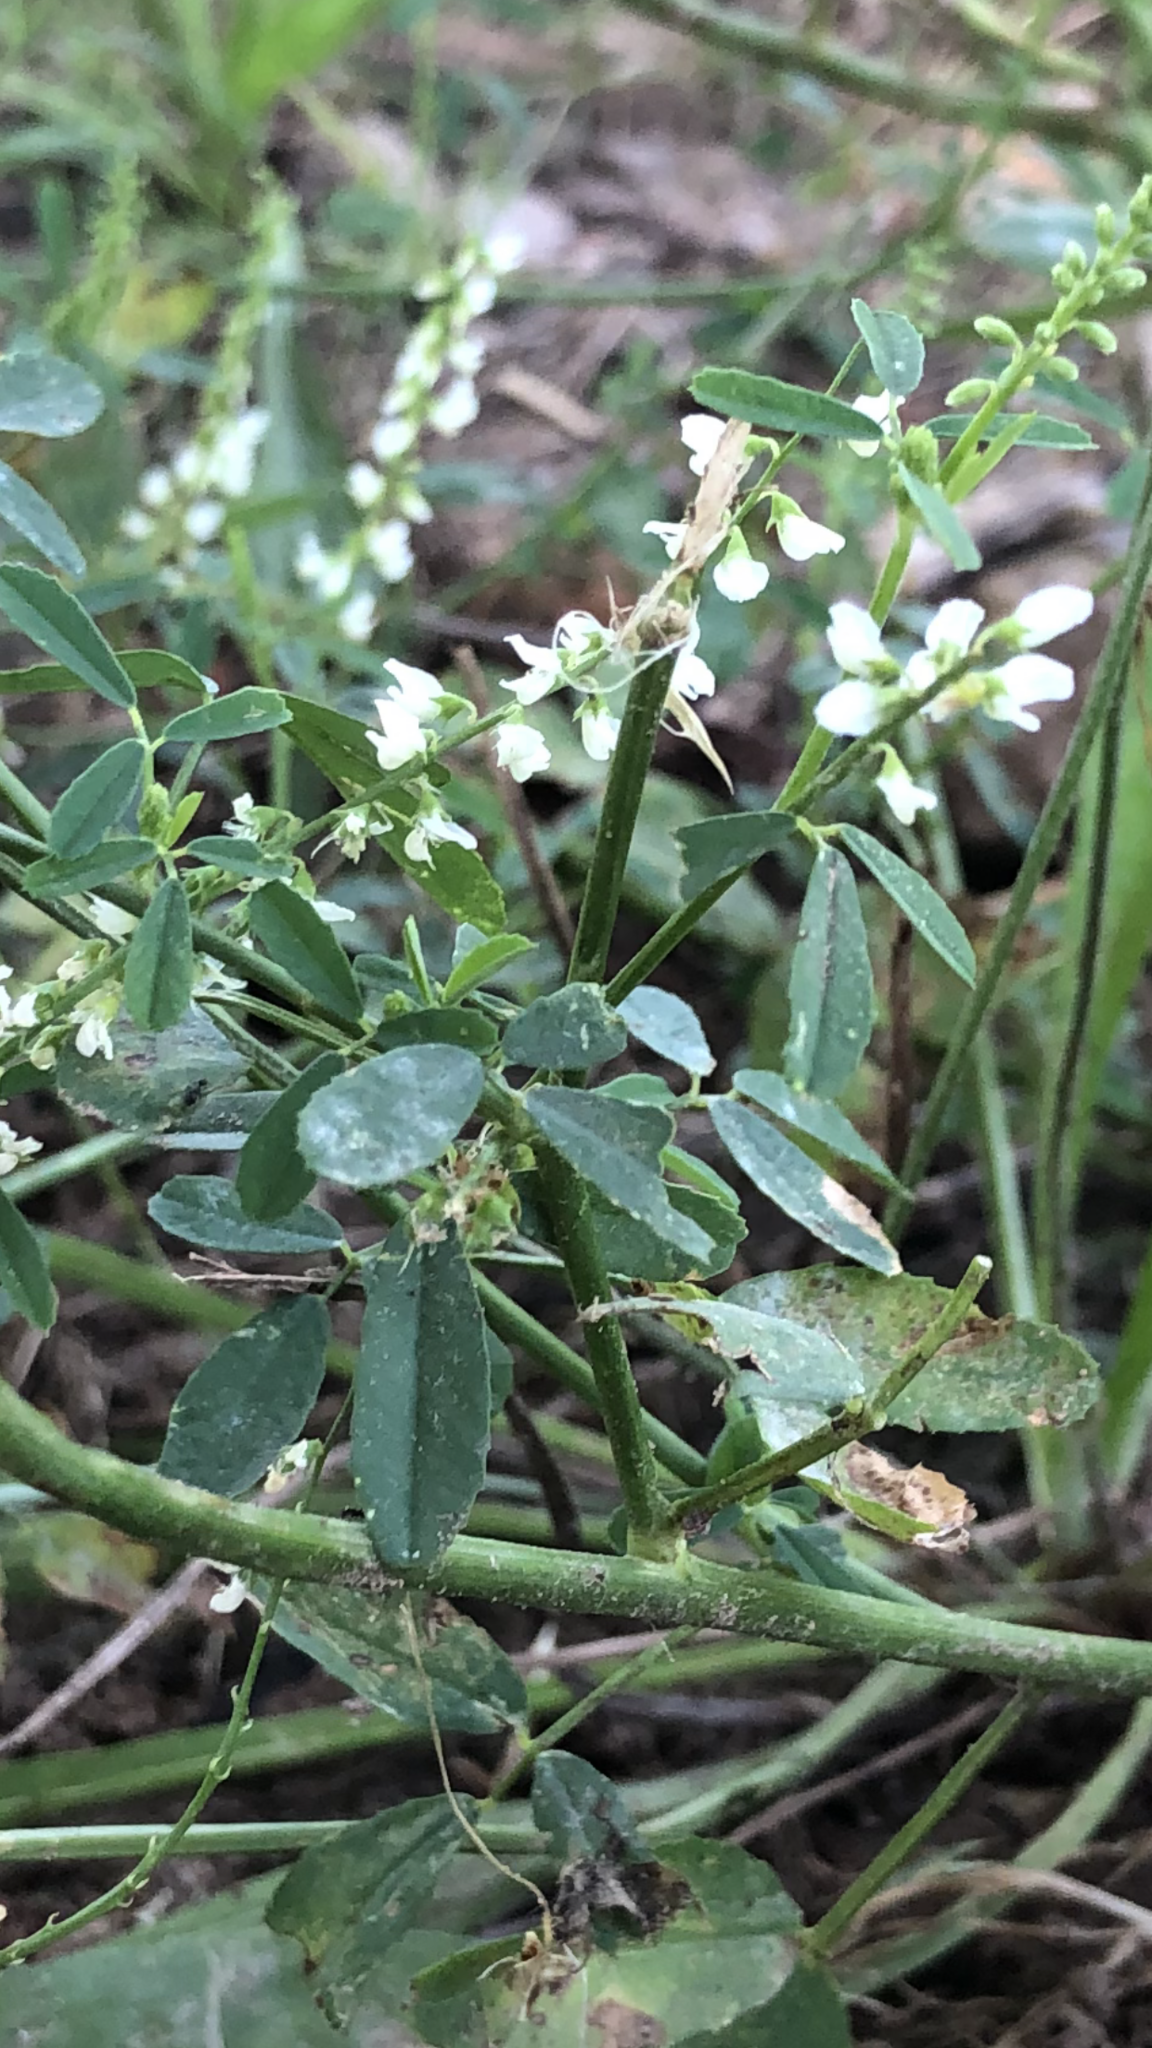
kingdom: Plantae
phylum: Tracheophyta
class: Magnoliopsida
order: Fabales
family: Fabaceae
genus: Melilotus
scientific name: Melilotus albus
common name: White melilot
